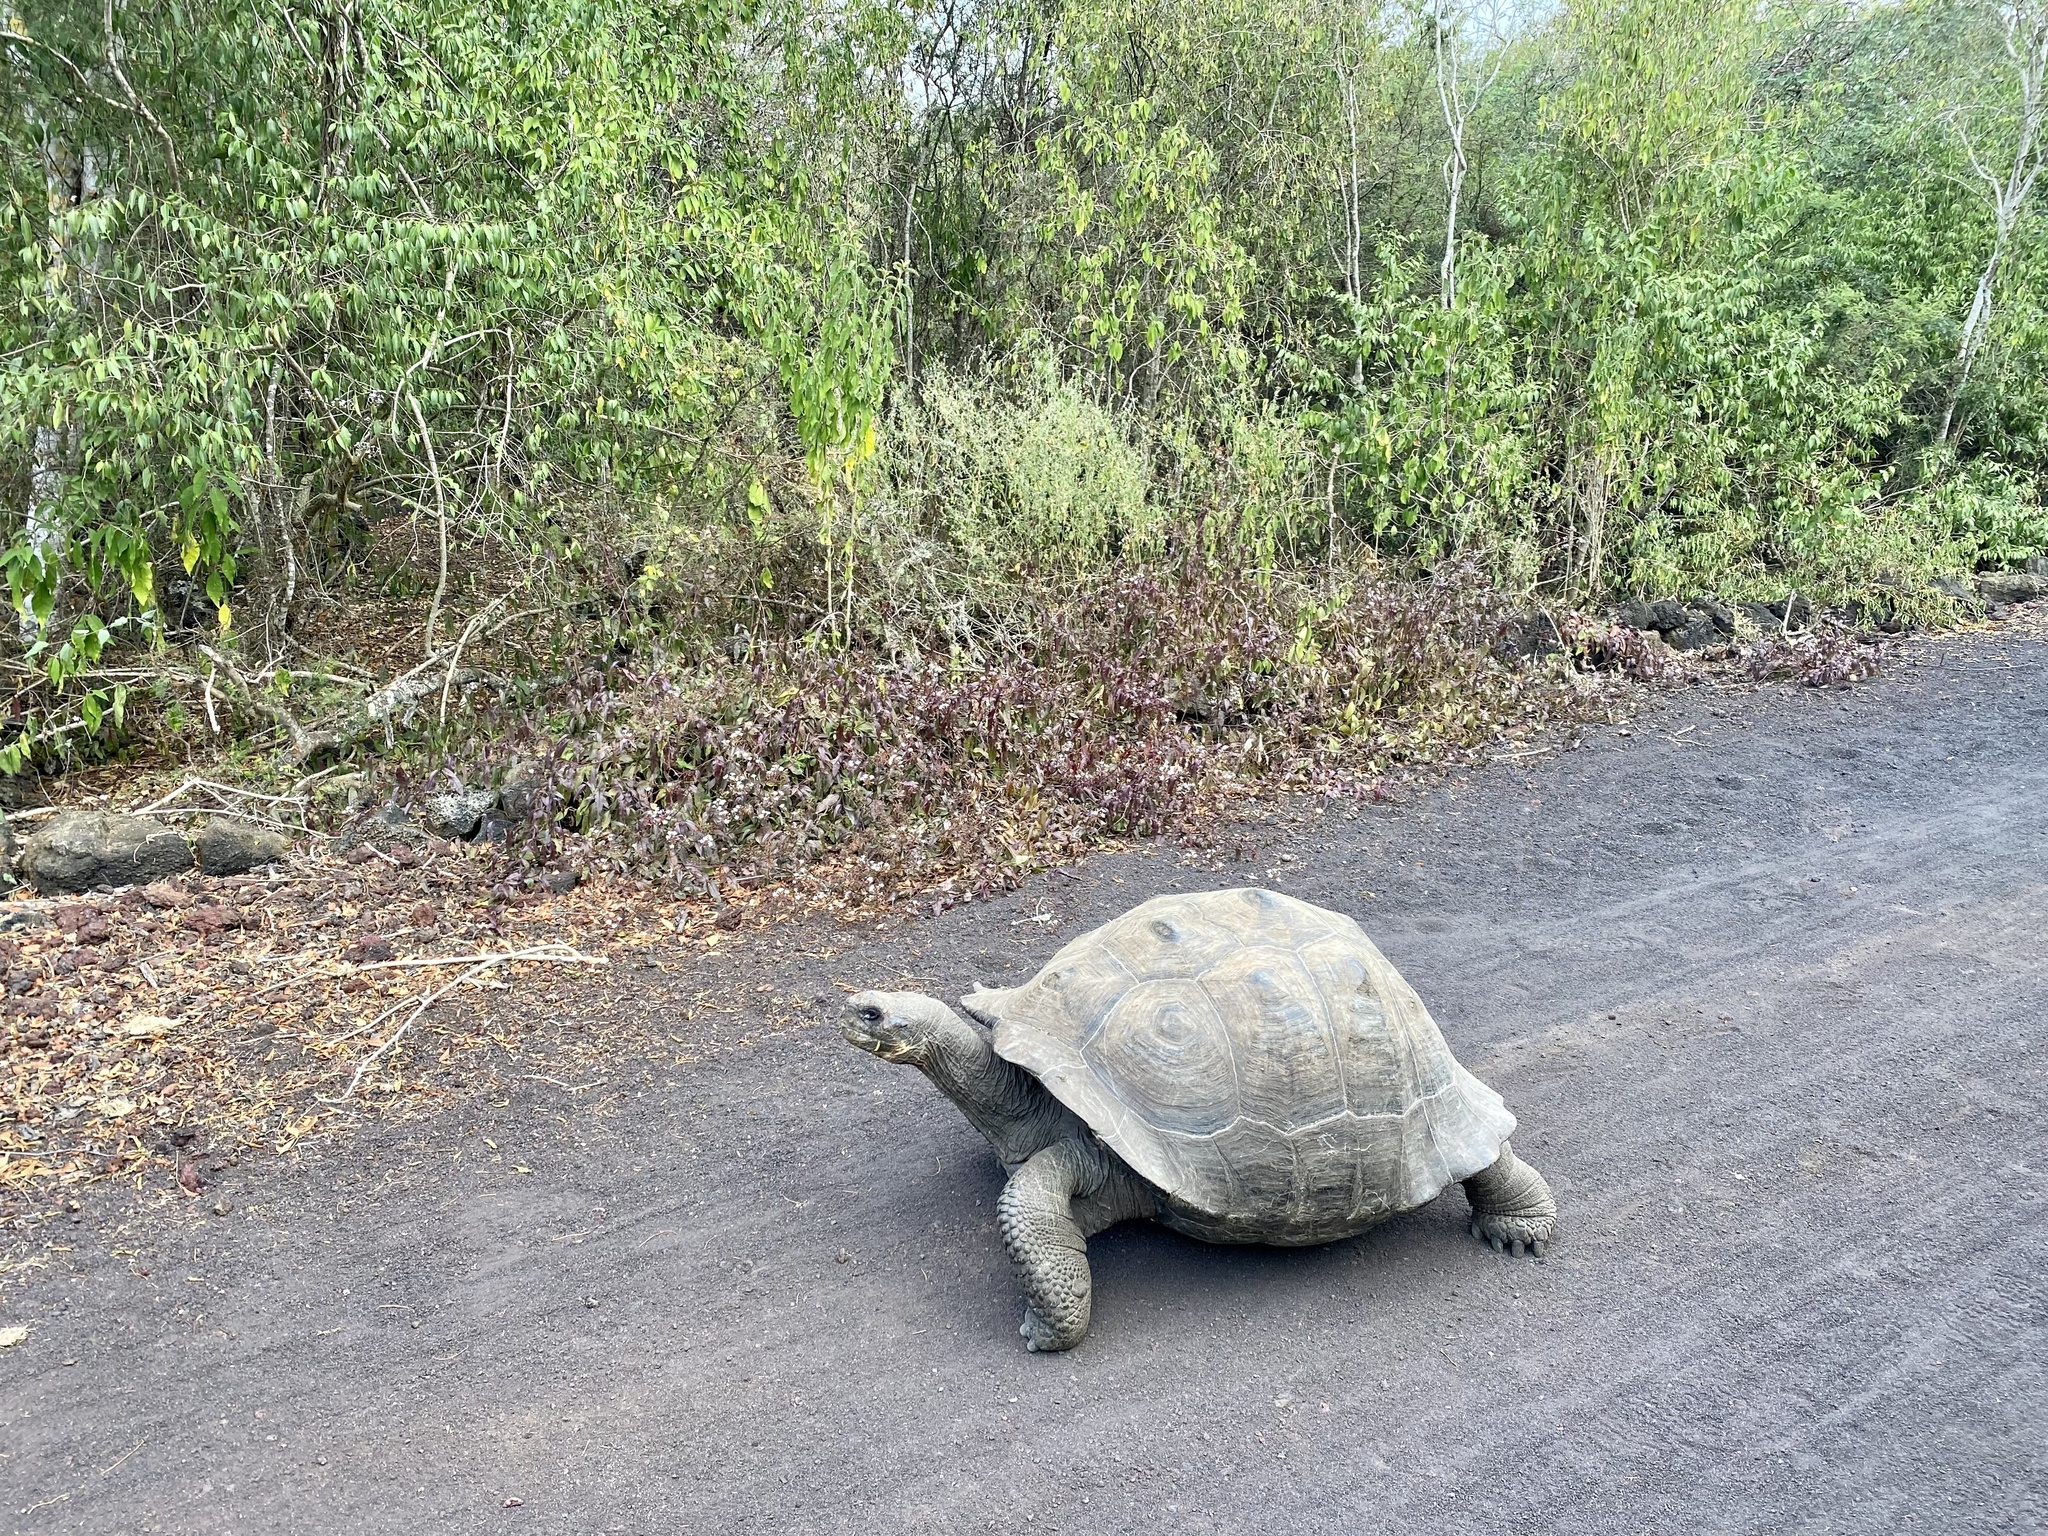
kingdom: Animalia
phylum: Chordata
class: Testudines
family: Testudinidae
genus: Chelonoidis
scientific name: Chelonoidis guntheri
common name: Sierra negra giant tortoise
